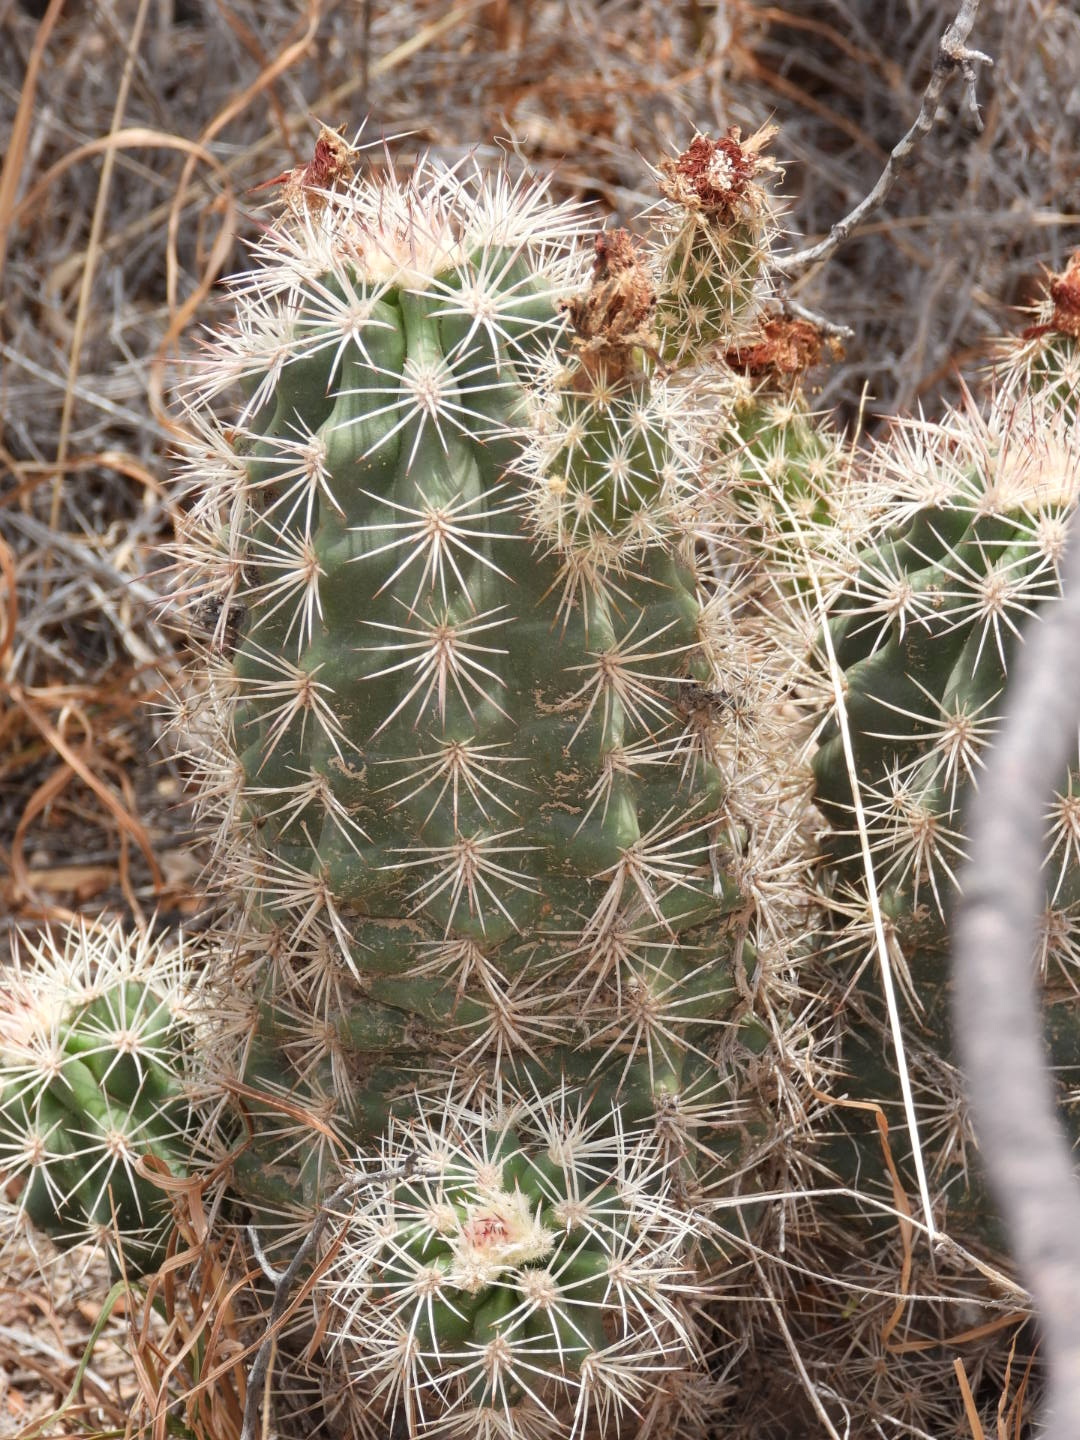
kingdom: Plantae
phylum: Tracheophyta
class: Magnoliopsida
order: Caryophyllales
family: Cactaceae
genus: Echinocereus
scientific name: Echinocereus roetteri
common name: Lloyd's hedgehog cactus
